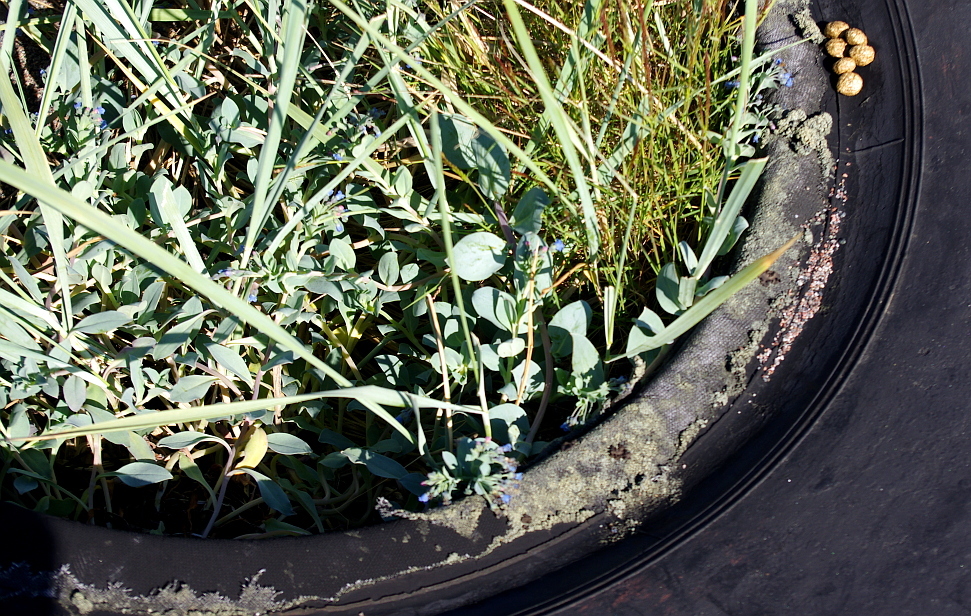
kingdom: Plantae
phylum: Tracheophyta
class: Magnoliopsida
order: Boraginales
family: Boraginaceae
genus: Mertensia
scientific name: Mertensia maritima
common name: Oysterplant
